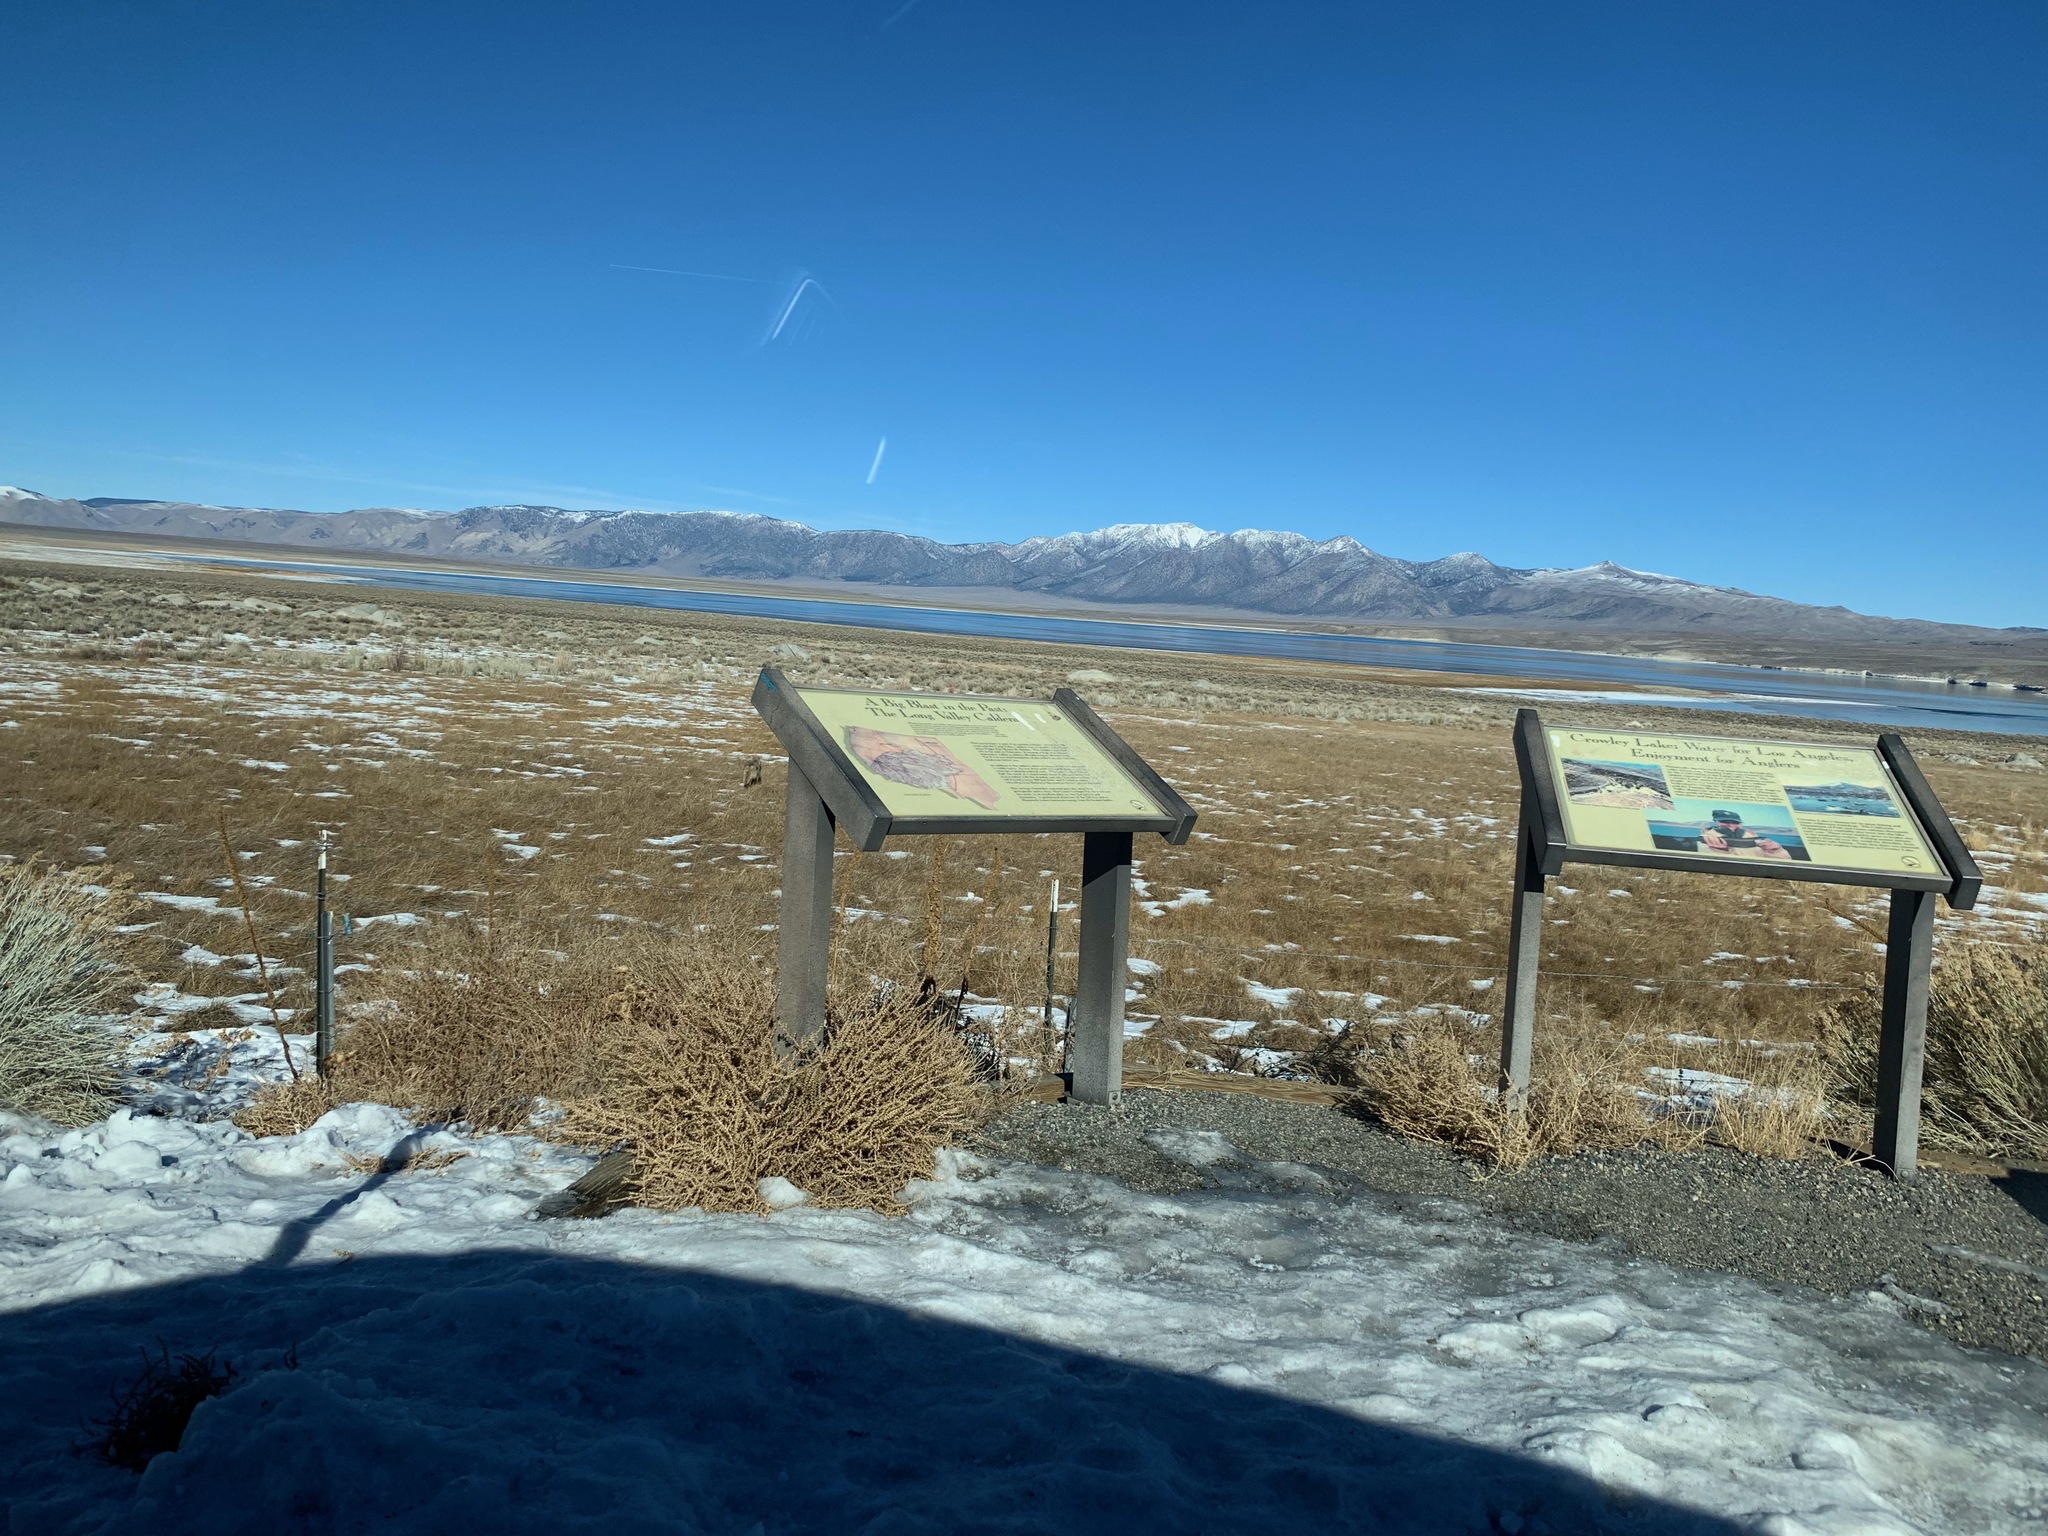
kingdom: Animalia
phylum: Chordata
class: Mammalia
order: Carnivora
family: Canidae
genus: Canis
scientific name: Canis latrans
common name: Coyote
